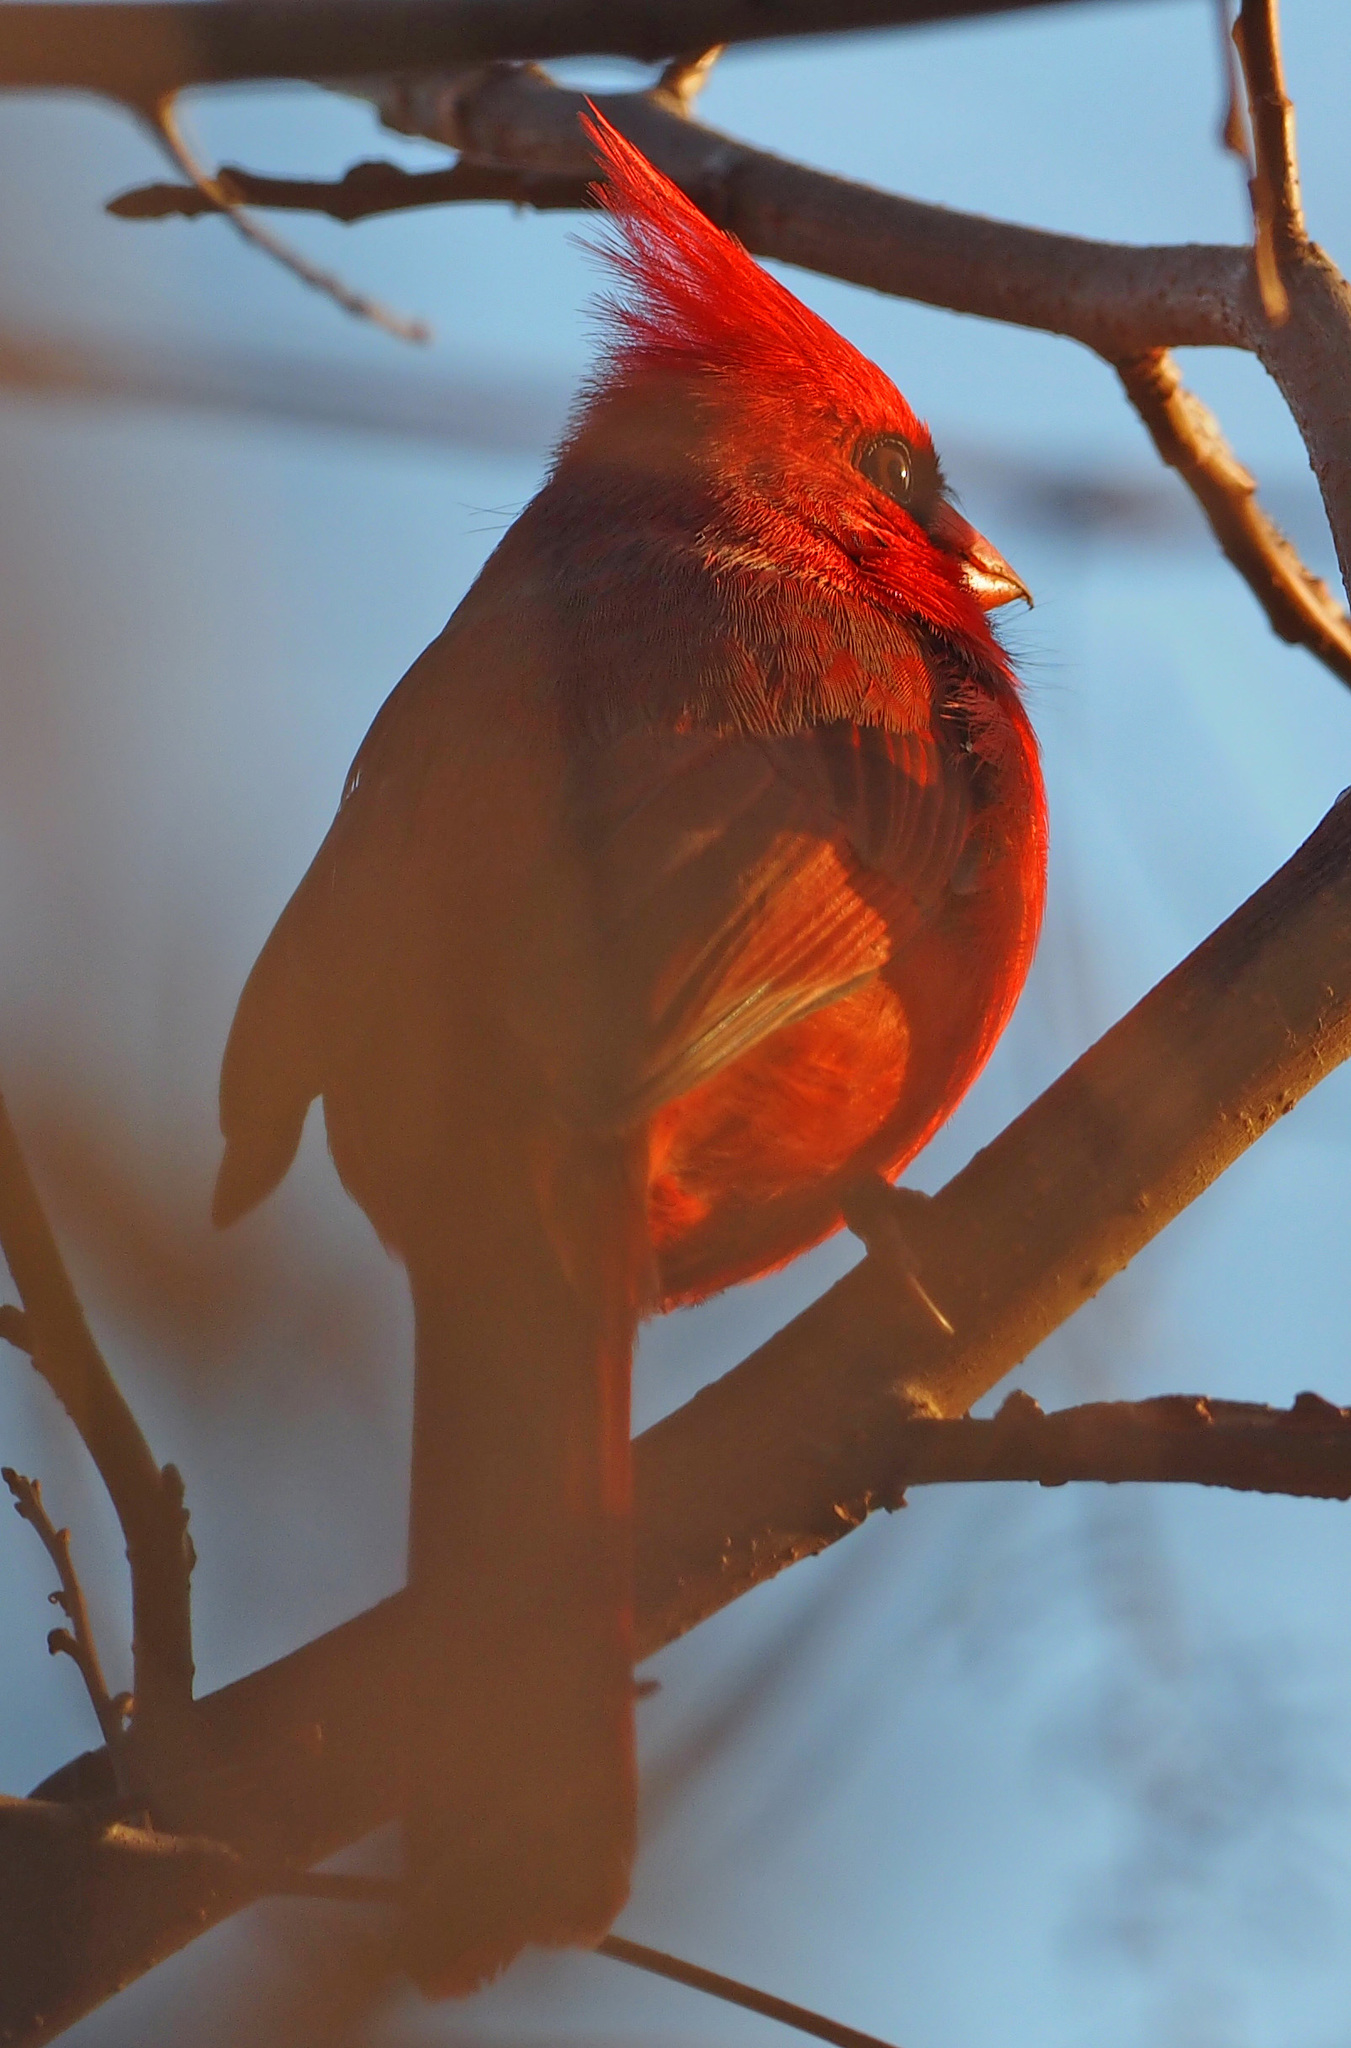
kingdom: Animalia
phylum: Chordata
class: Aves
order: Passeriformes
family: Cardinalidae
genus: Cardinalis
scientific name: Cardinalis cardinalis
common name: Northern cardinal
